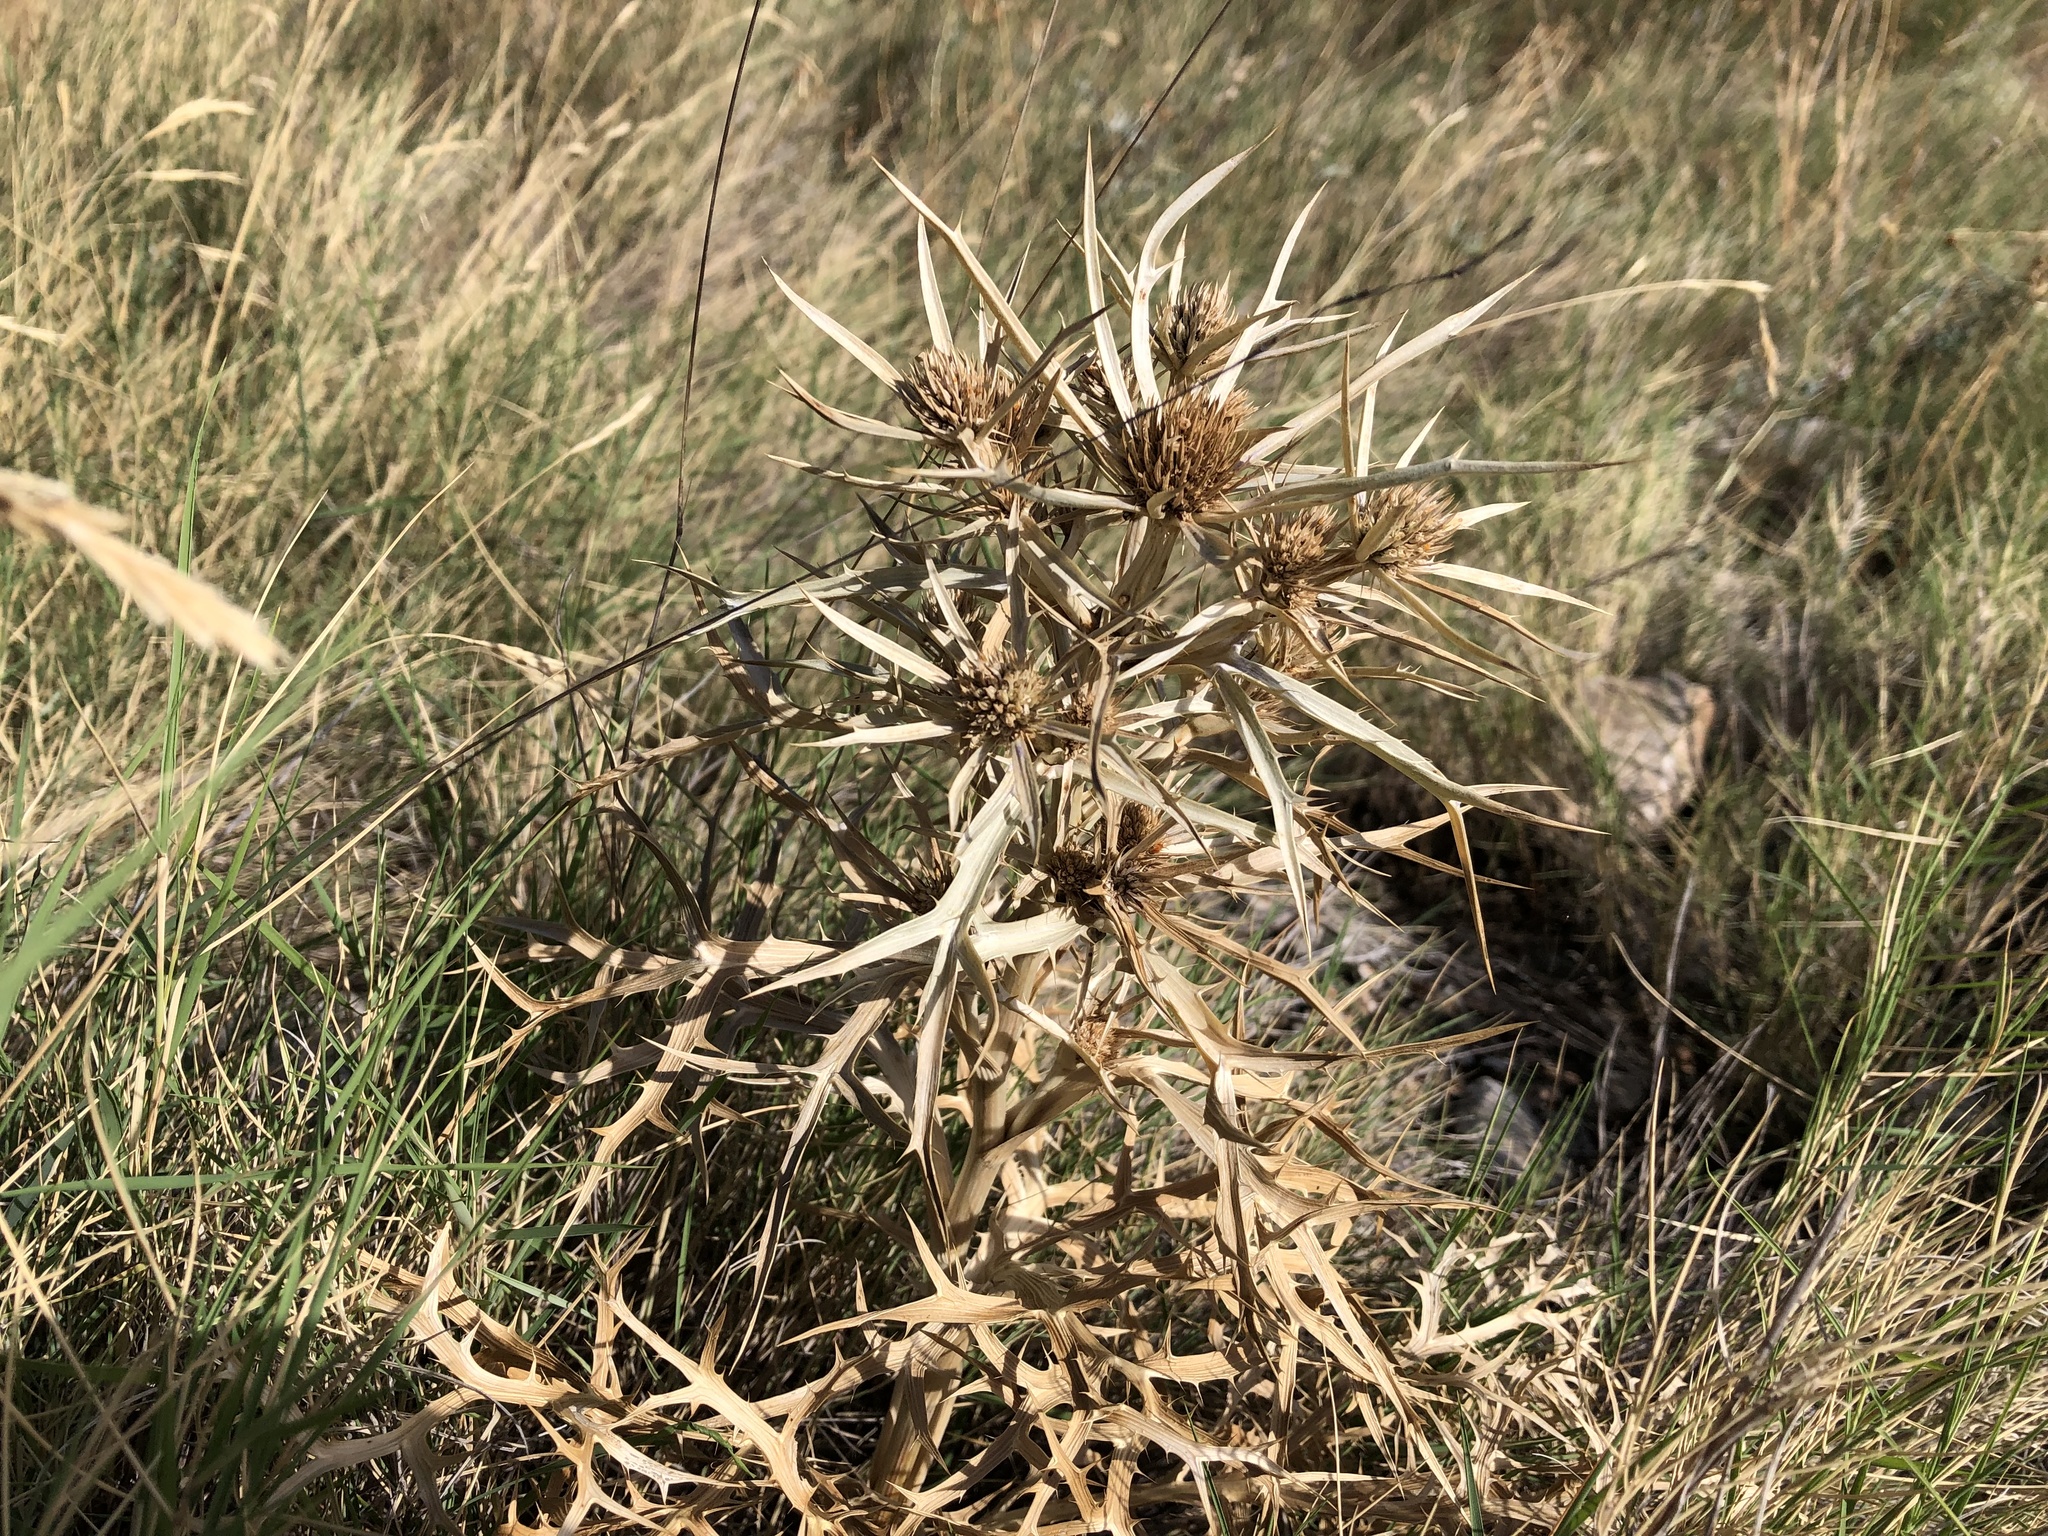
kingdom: Plantae
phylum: Tracheophyta
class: Magnoliopsida
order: Apiales
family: Apiaceae
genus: Eryngium
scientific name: Eryngium amethystinum
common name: Amethyst eryngo
